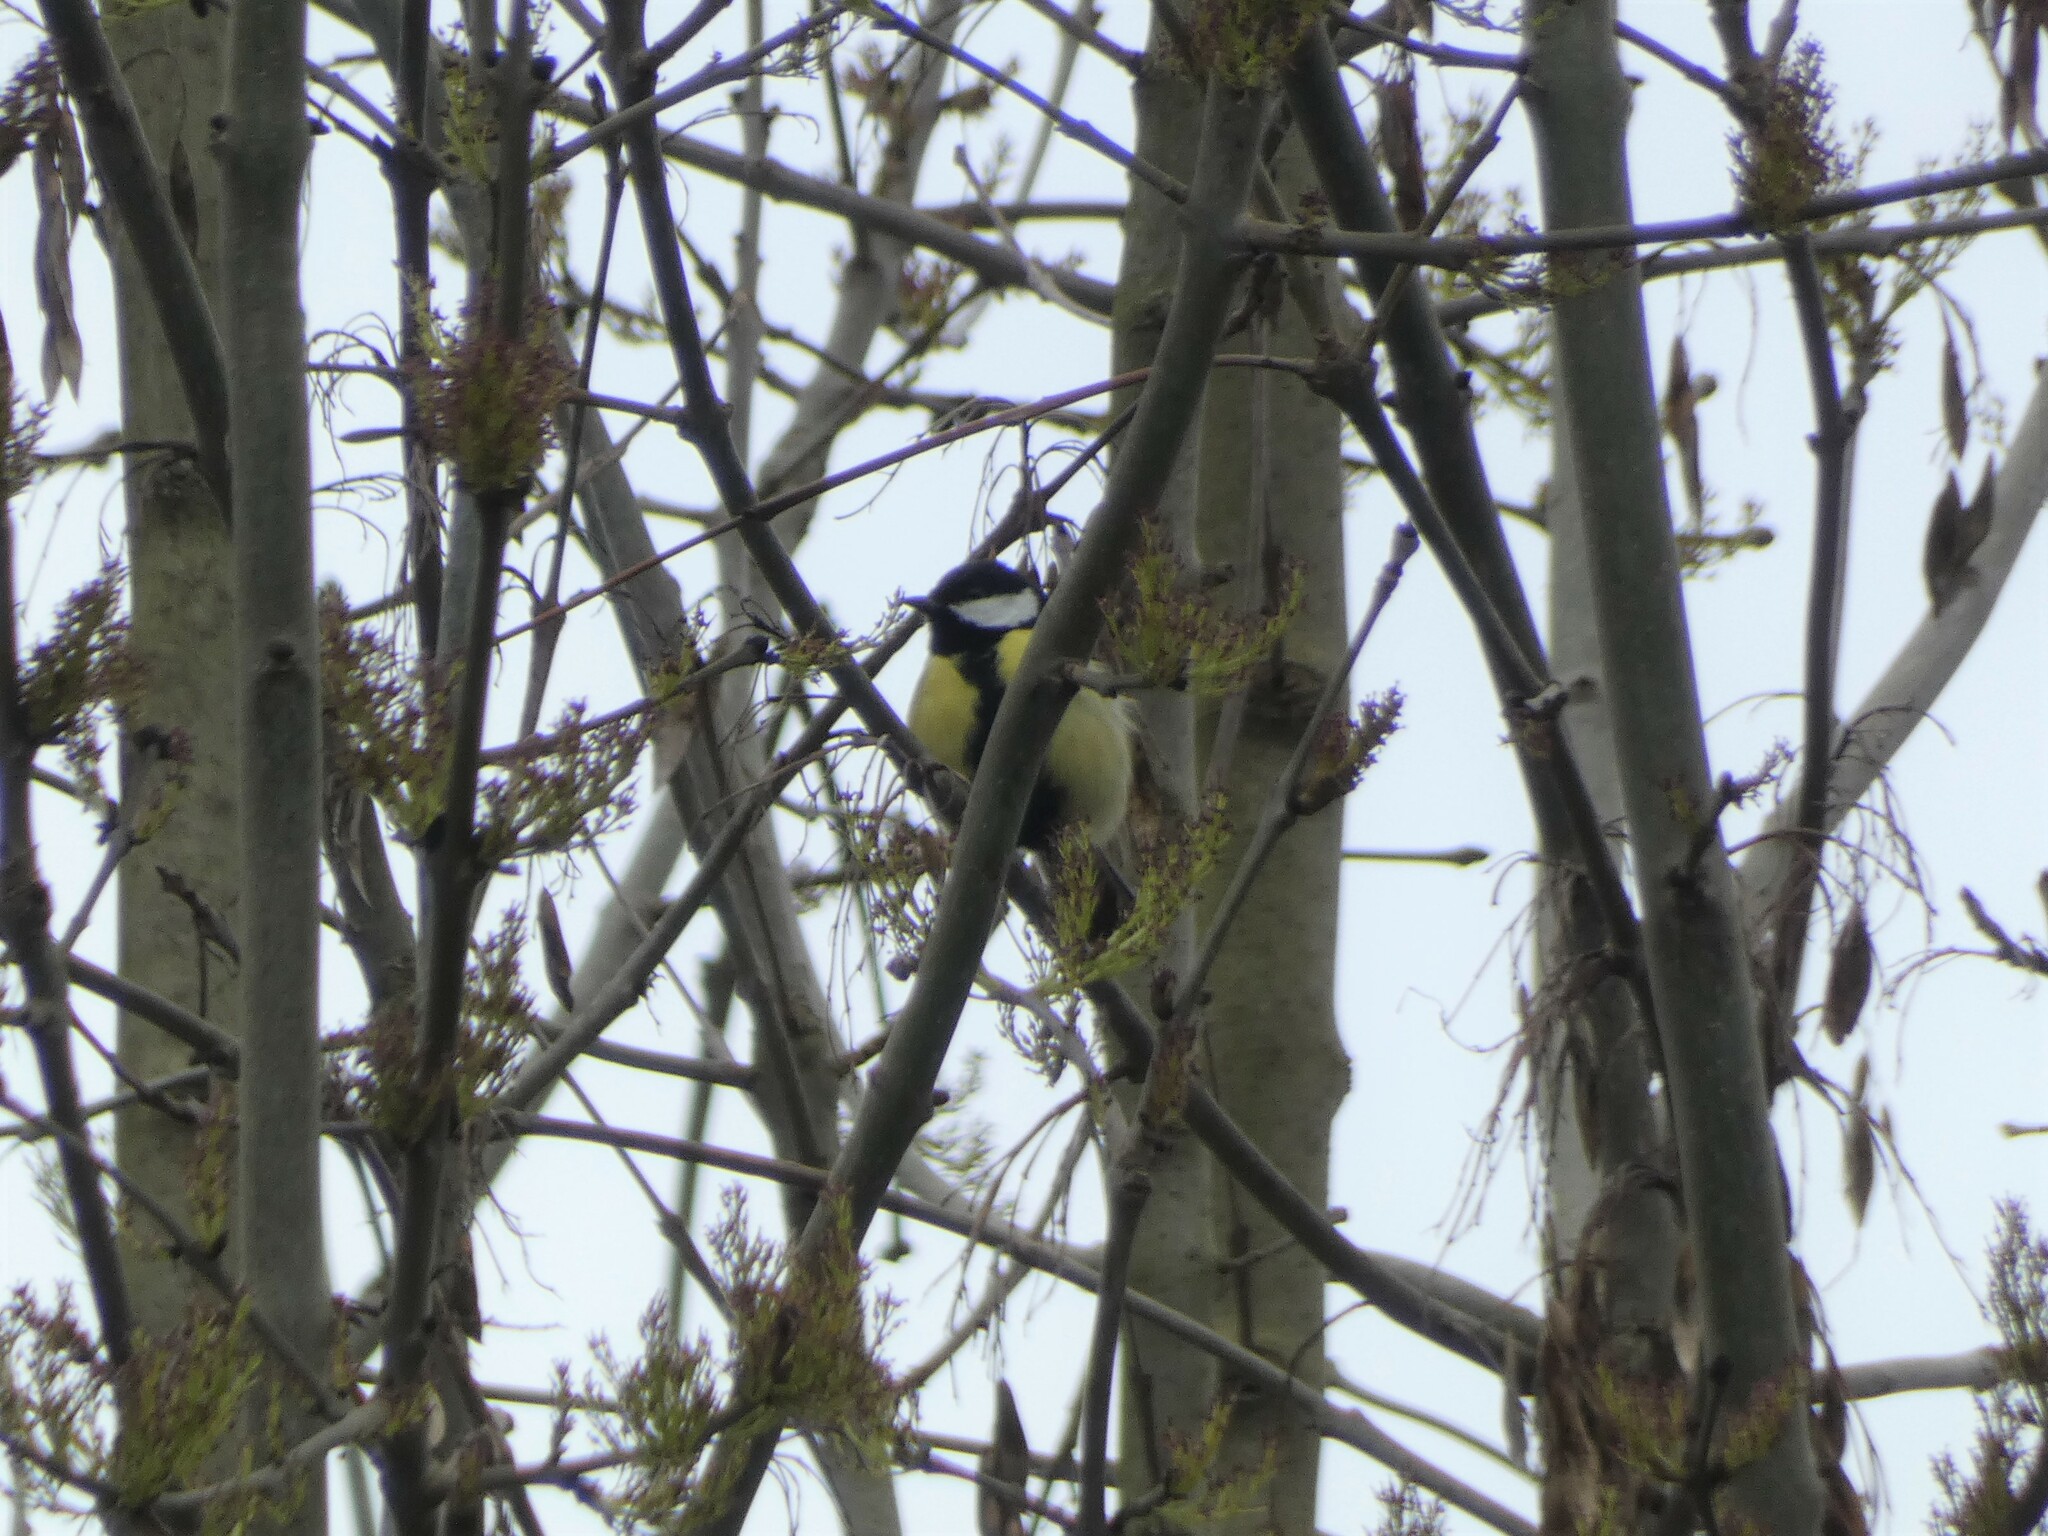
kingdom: Animalia
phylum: Chordata
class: Aves
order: Passeriformes
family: Paridae
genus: Parus
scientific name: Parus major
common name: Great tit
